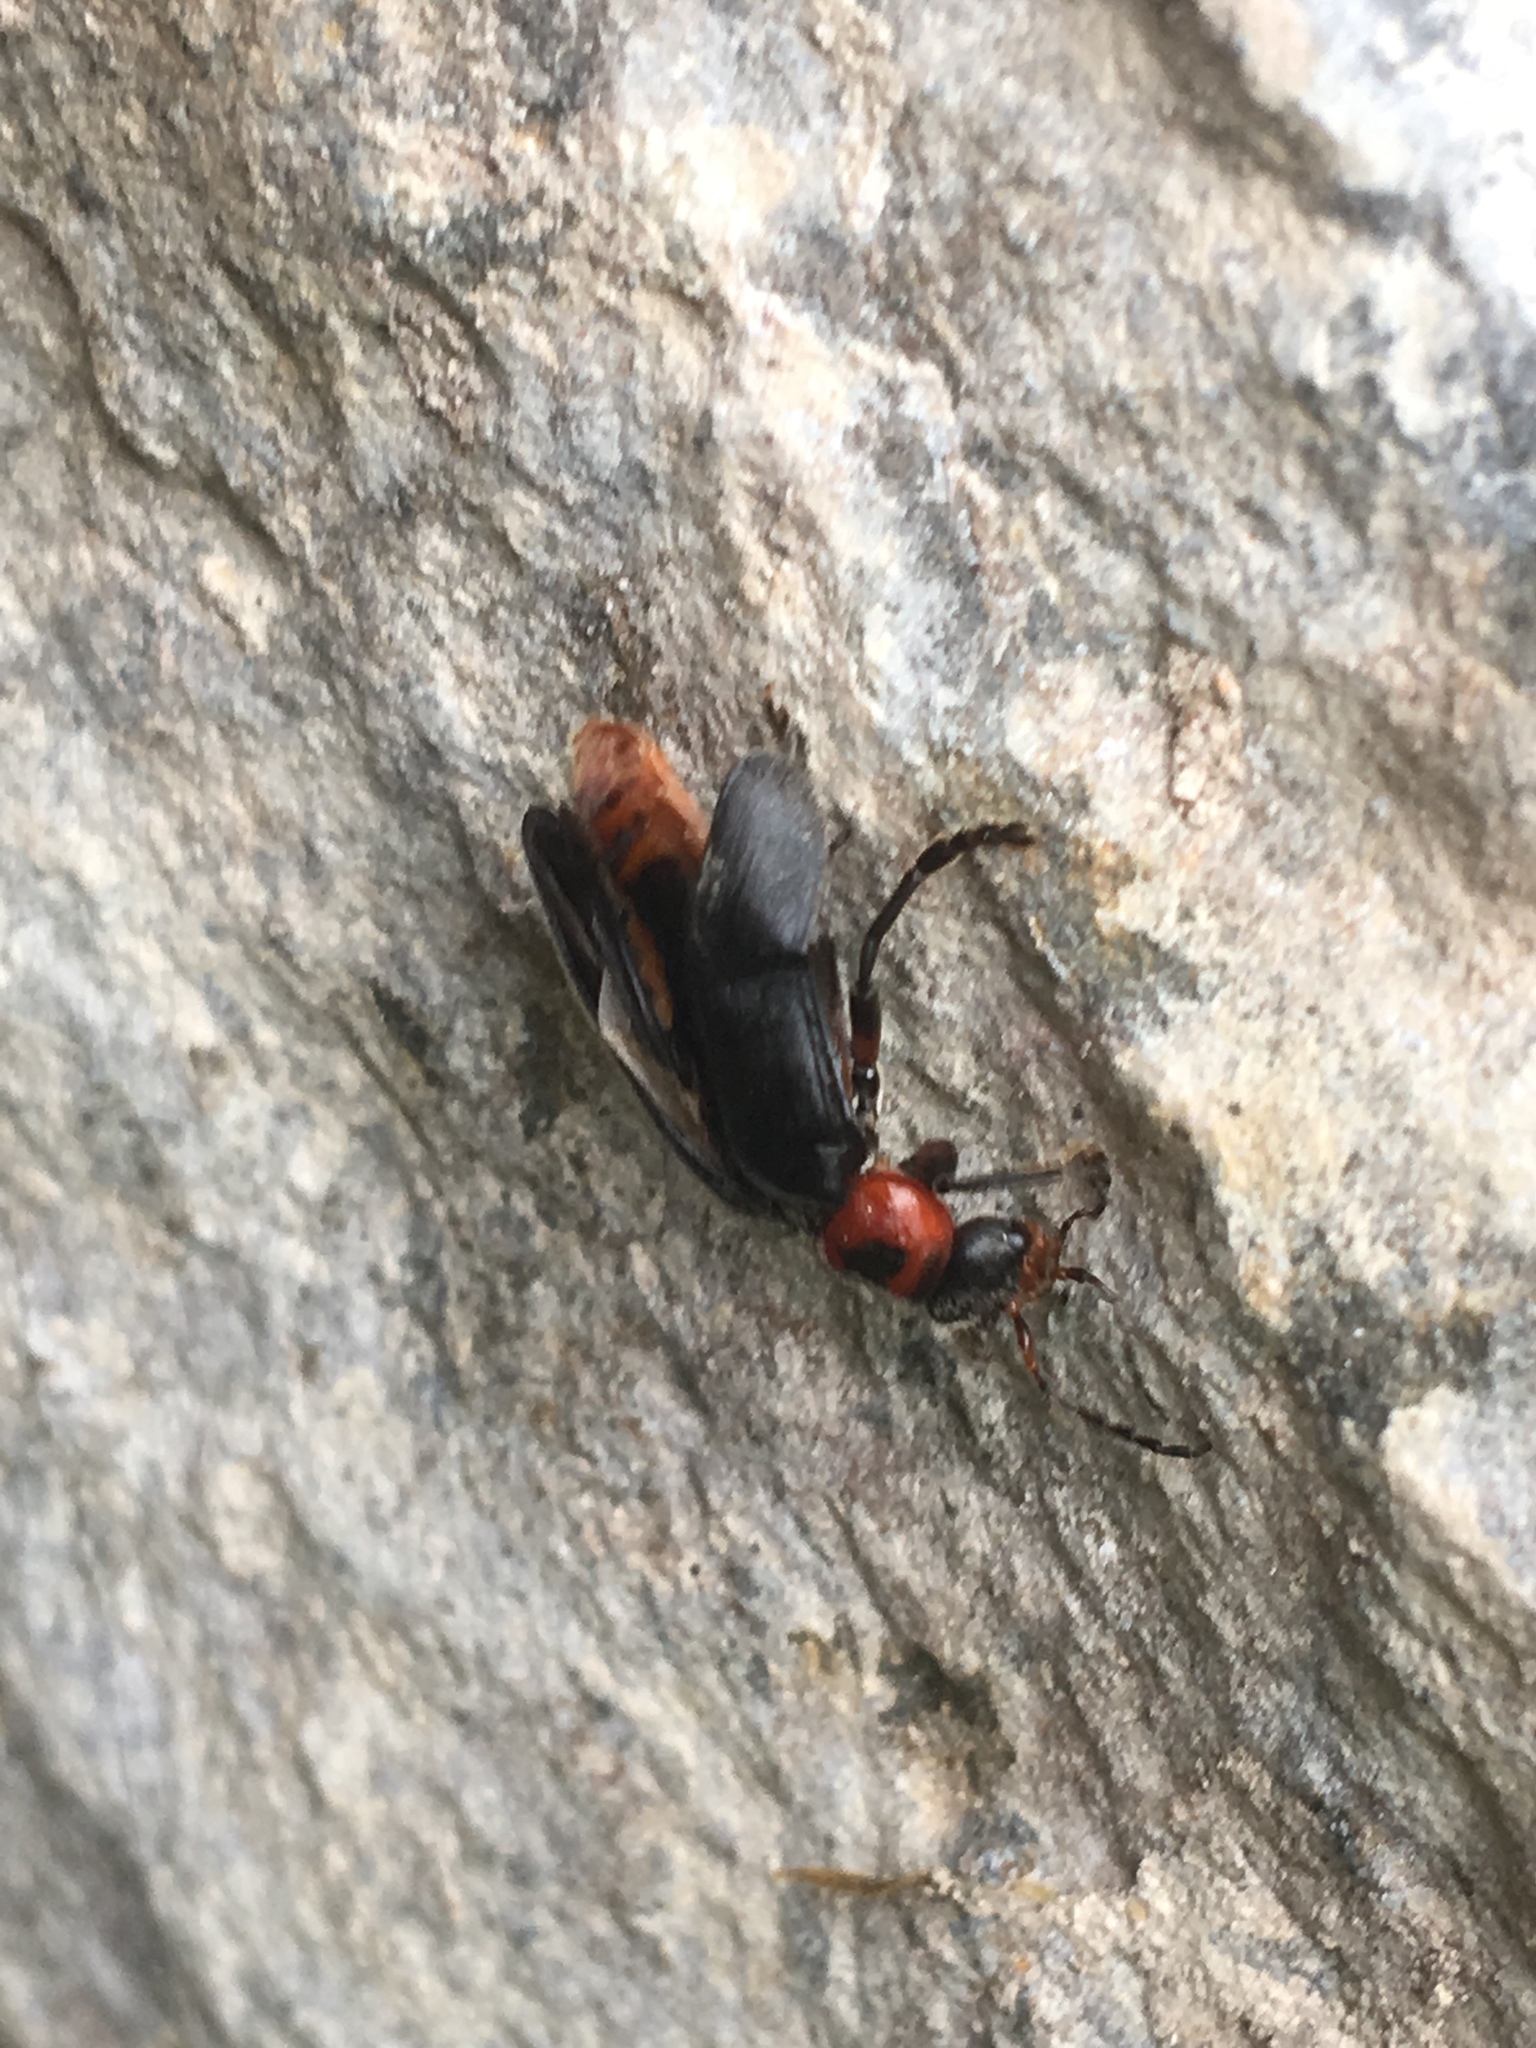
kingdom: Animalia
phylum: Arthropoda
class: Insecta
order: Coleoptera
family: Cantharidae
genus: Cantharis
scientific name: Cantharis rustica
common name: Soldier beetle
